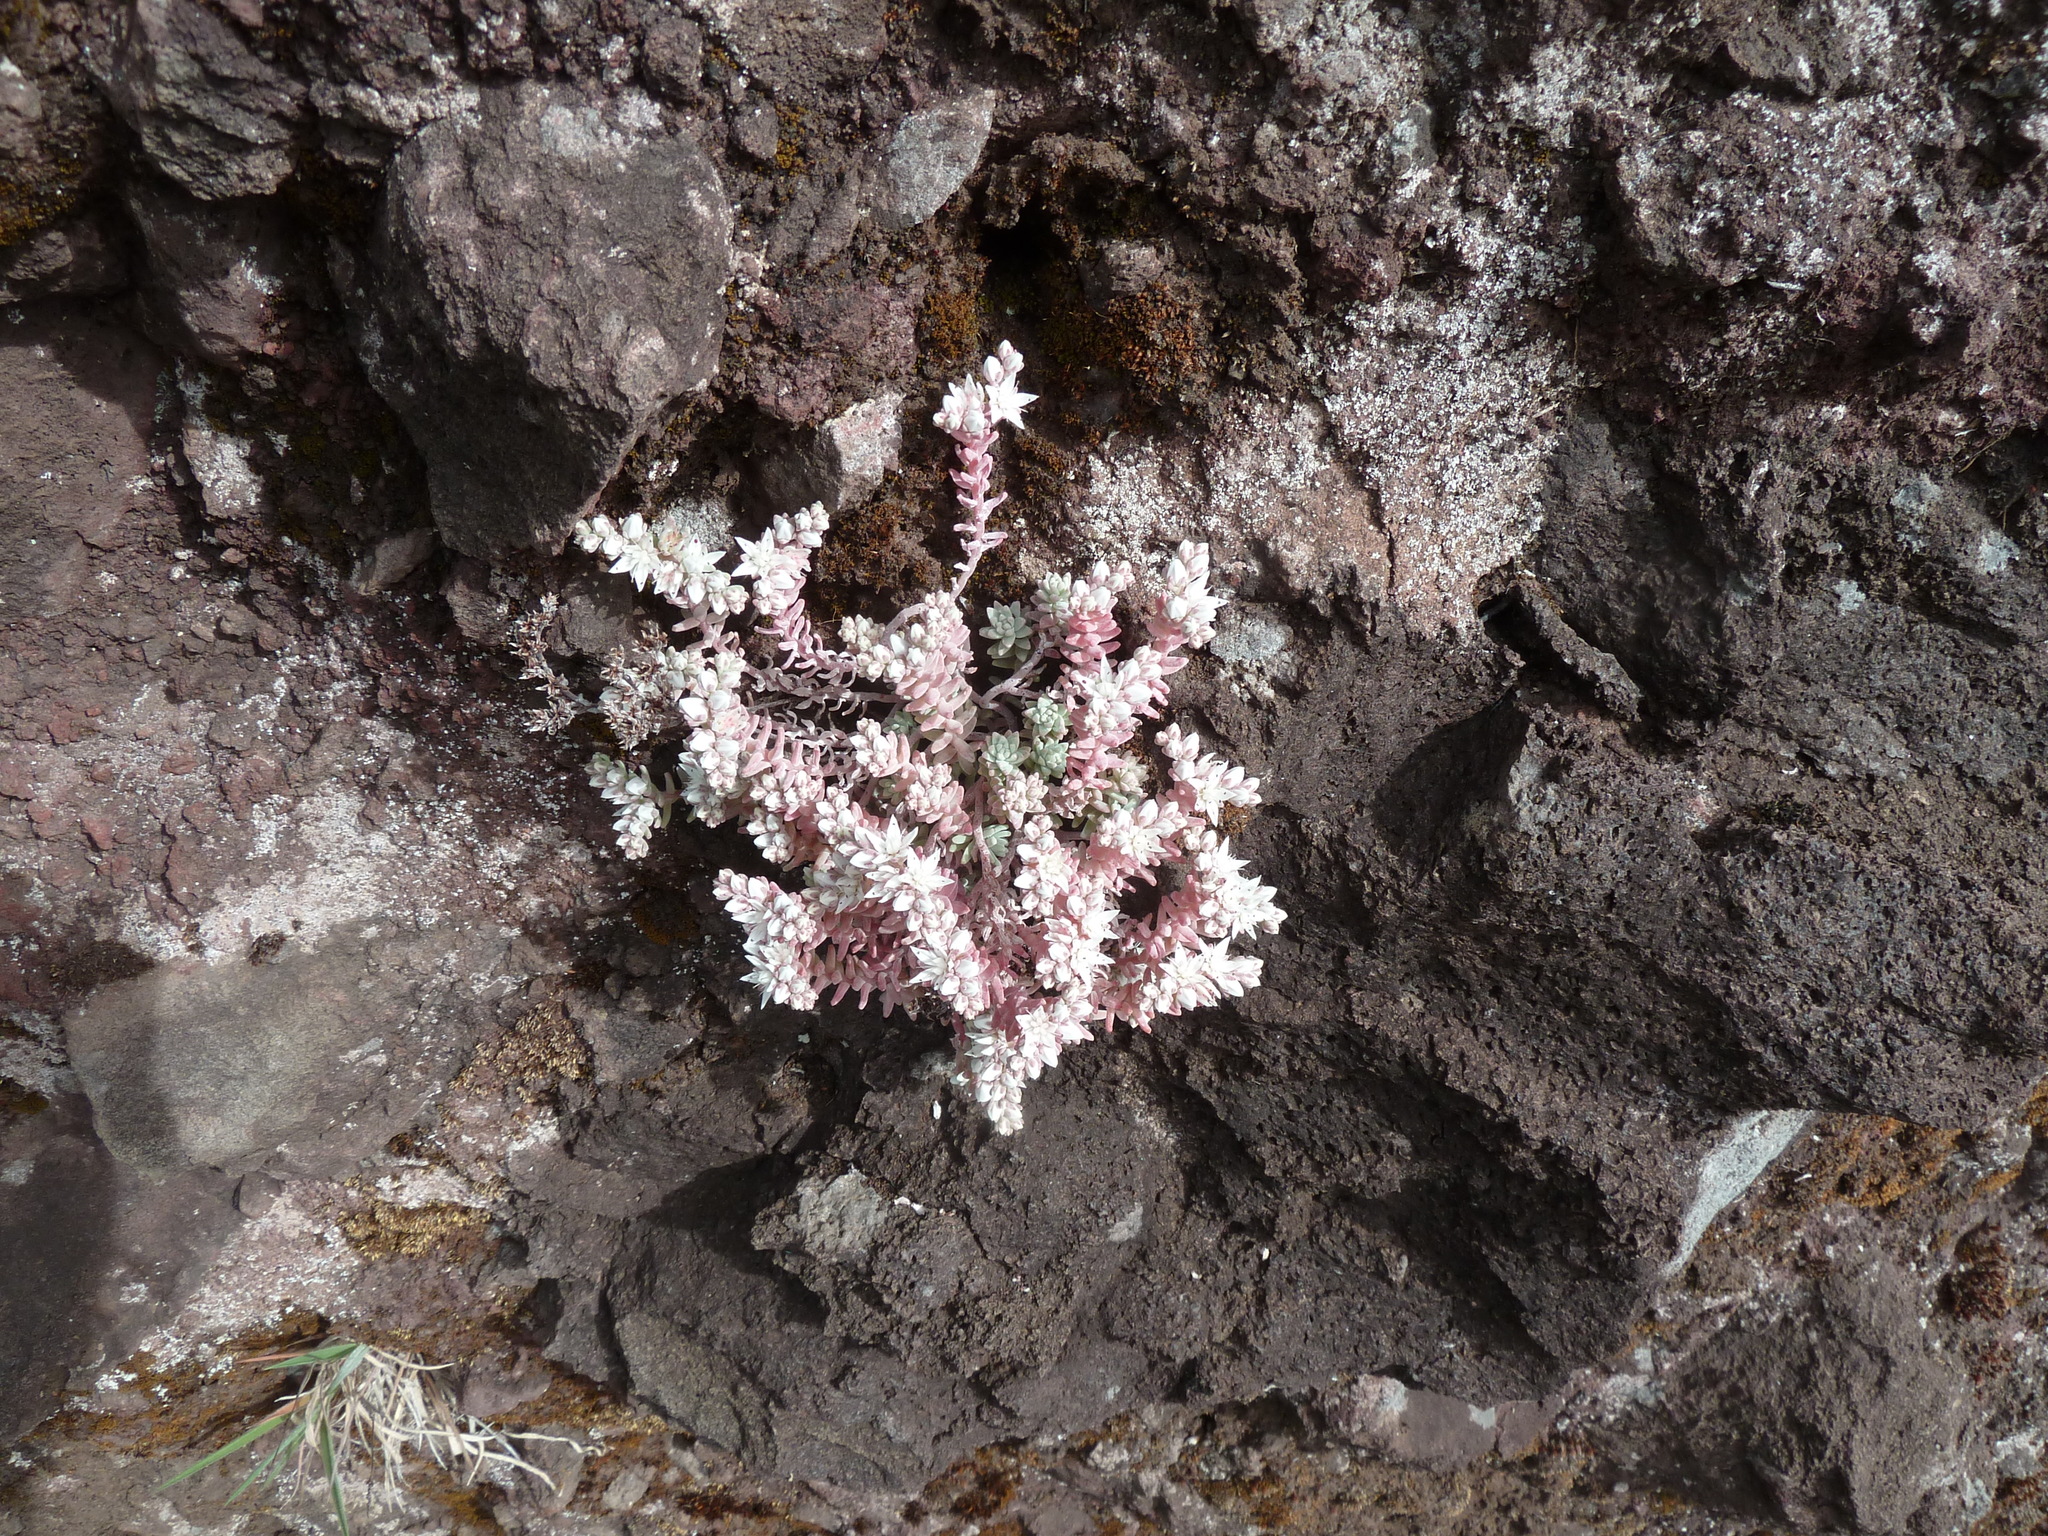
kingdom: Plantae
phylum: Tracheophyta
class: Magnoliopsida
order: Saxifragales
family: Crassulaceae
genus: Sedum
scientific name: Sedum farinosum
